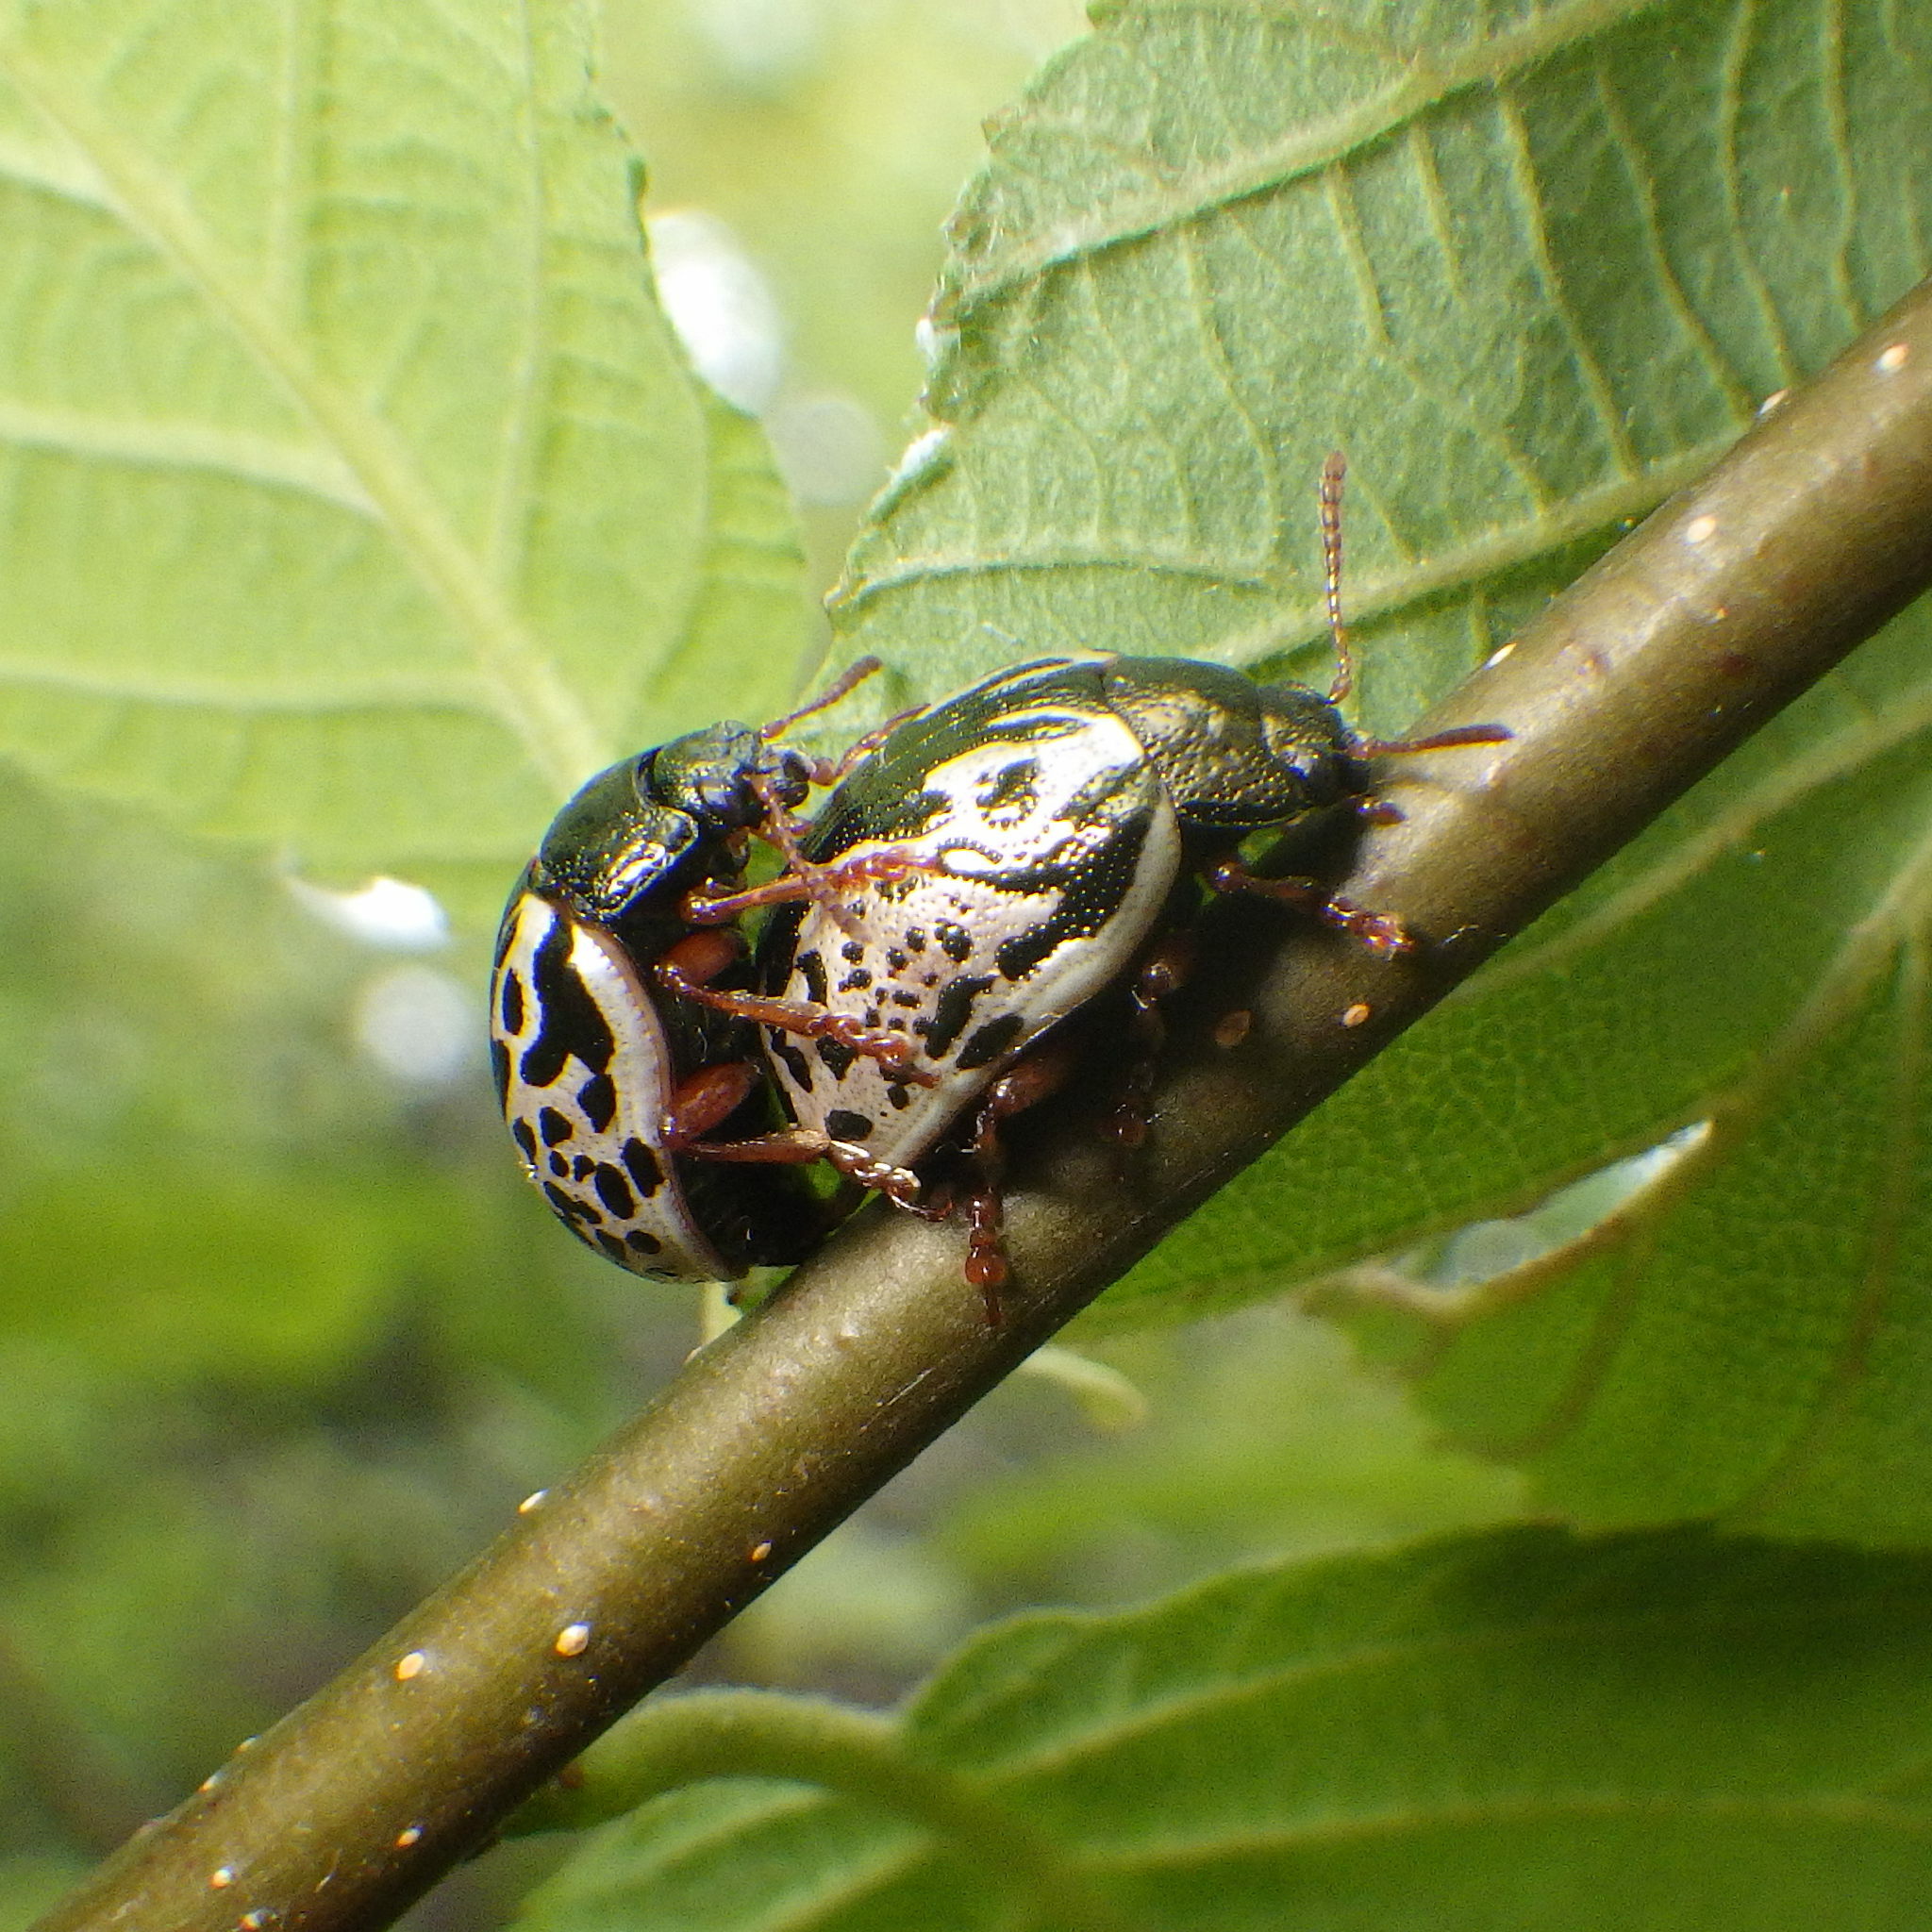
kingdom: Animalia
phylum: Arthropoda
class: Insecta
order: Coleoptera
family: Chrysomelidae
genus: Calligrapha
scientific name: Calligrapha confluens
